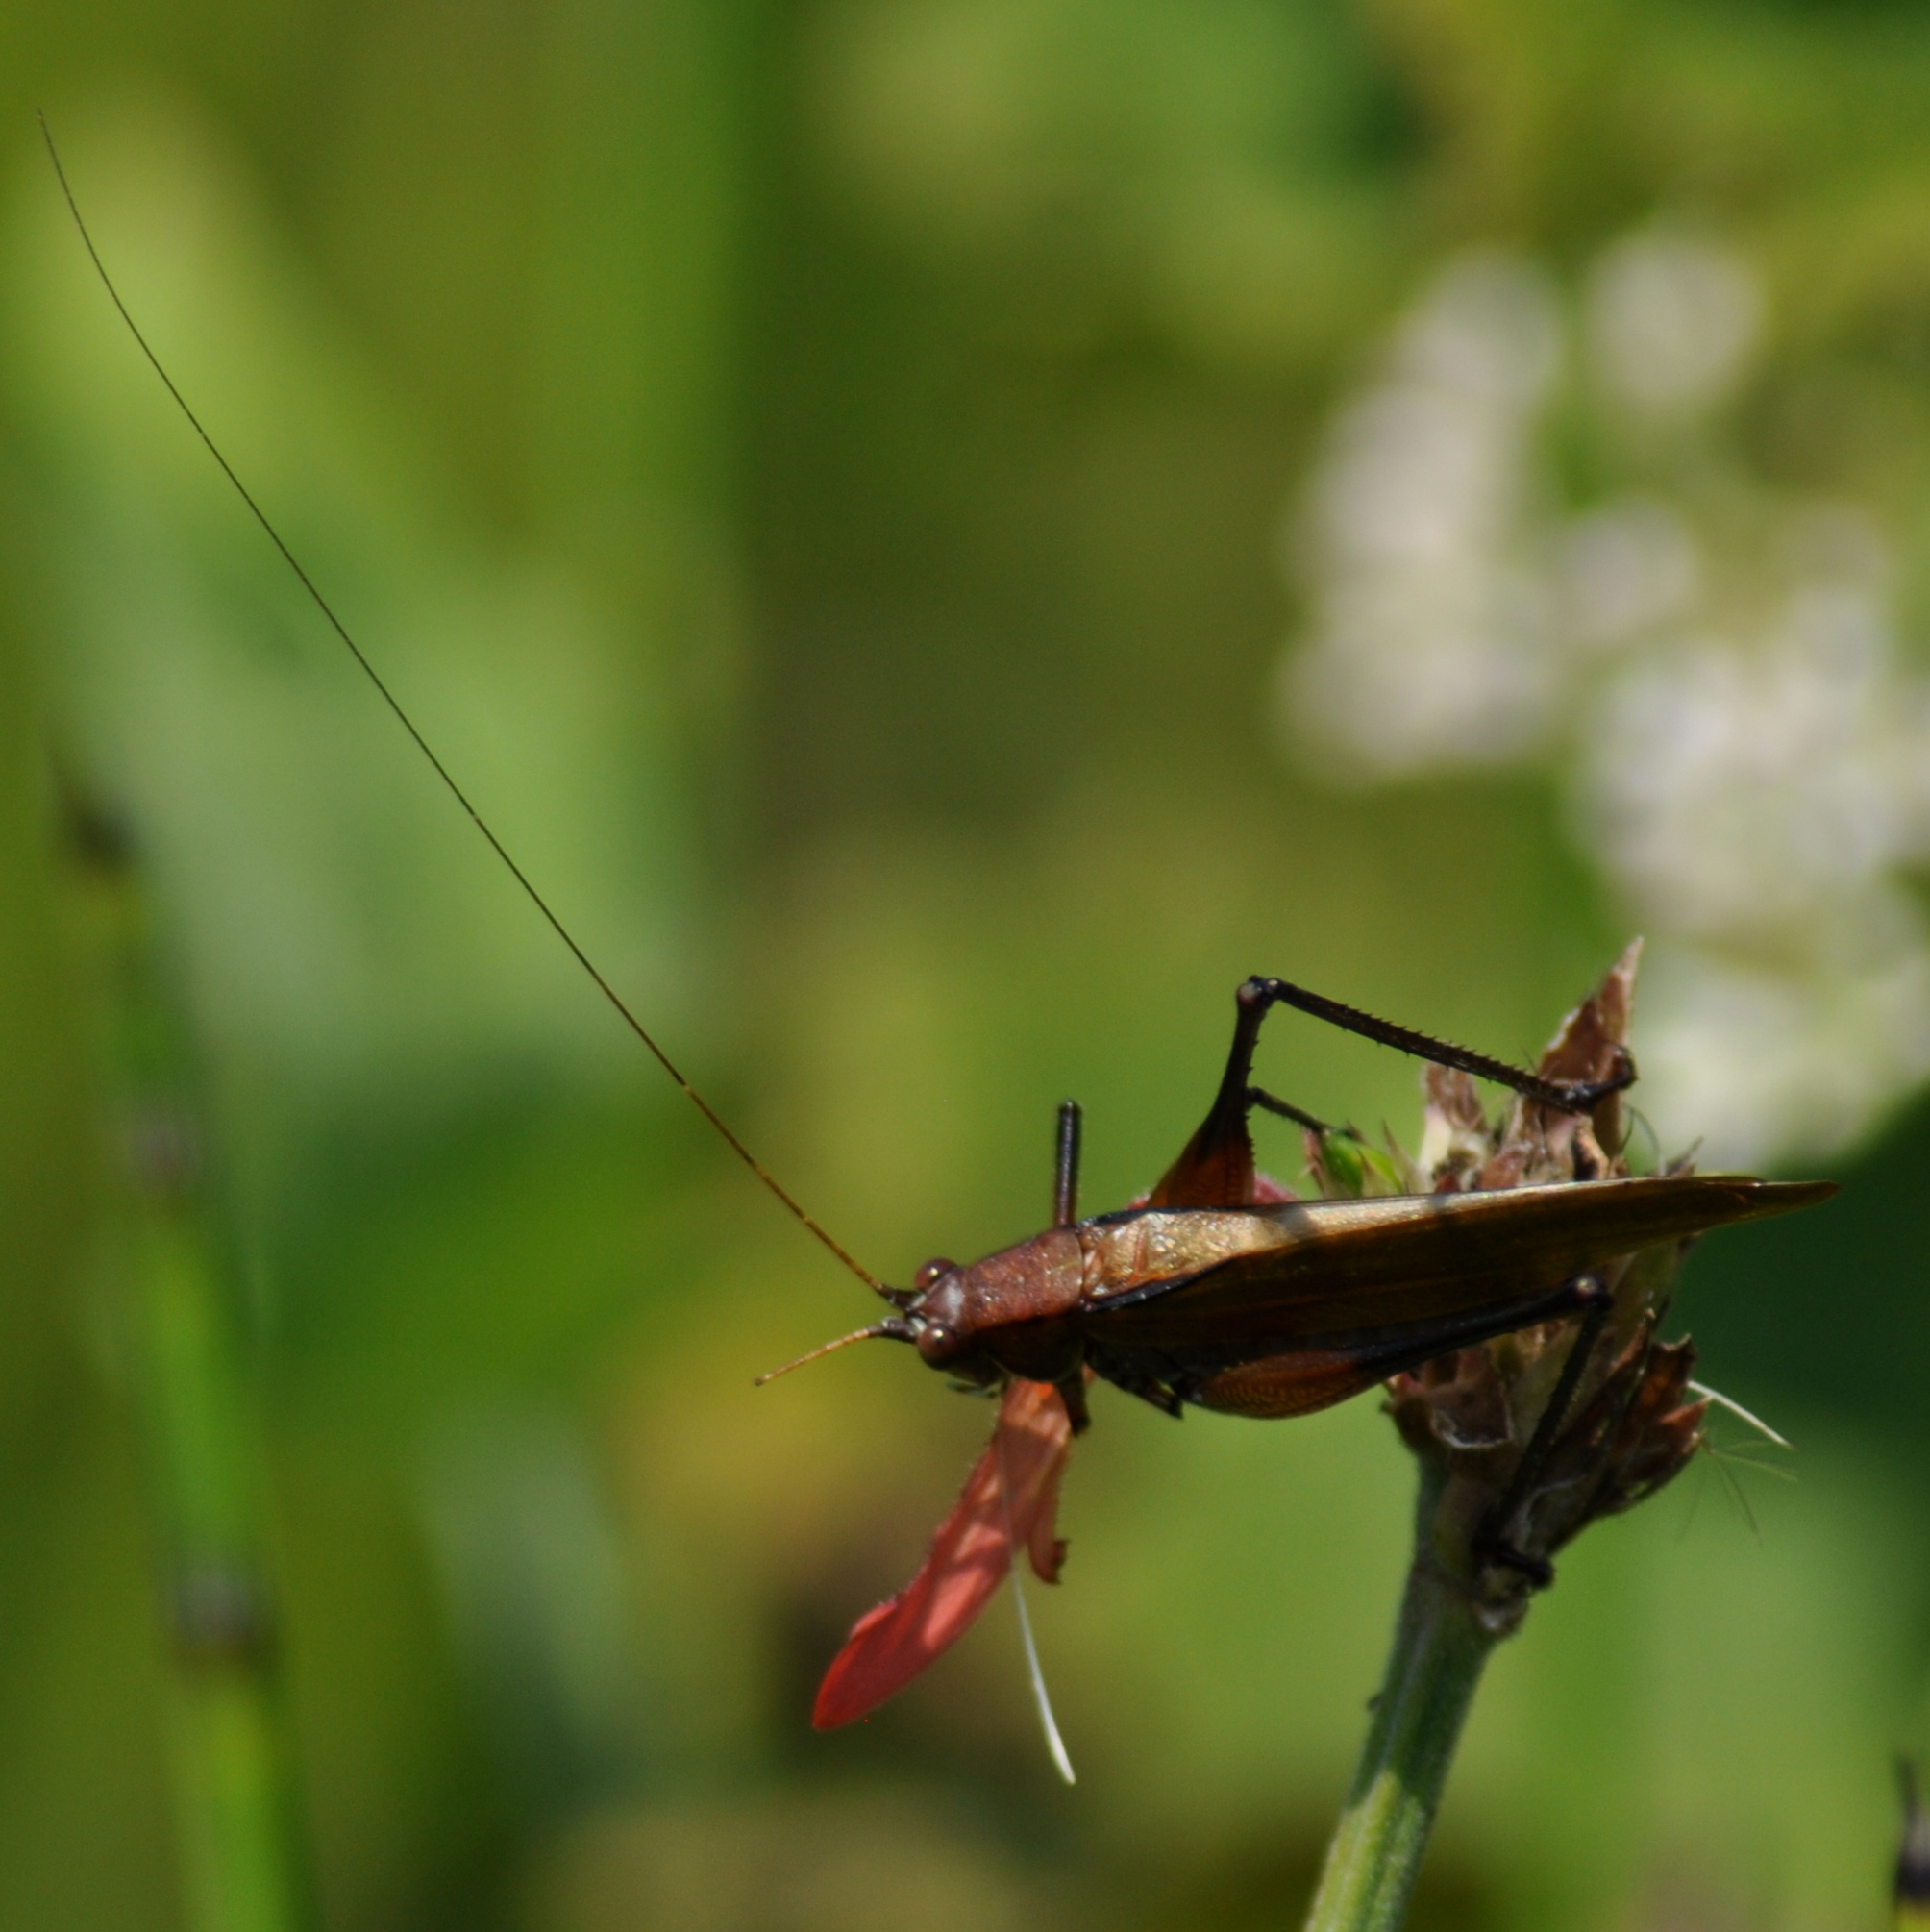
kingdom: Animalia
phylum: Arthropoda
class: Insecta
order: Orthoptera
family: Tettigoniidae
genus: Theudoria
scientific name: Theudoria melanocnemis
